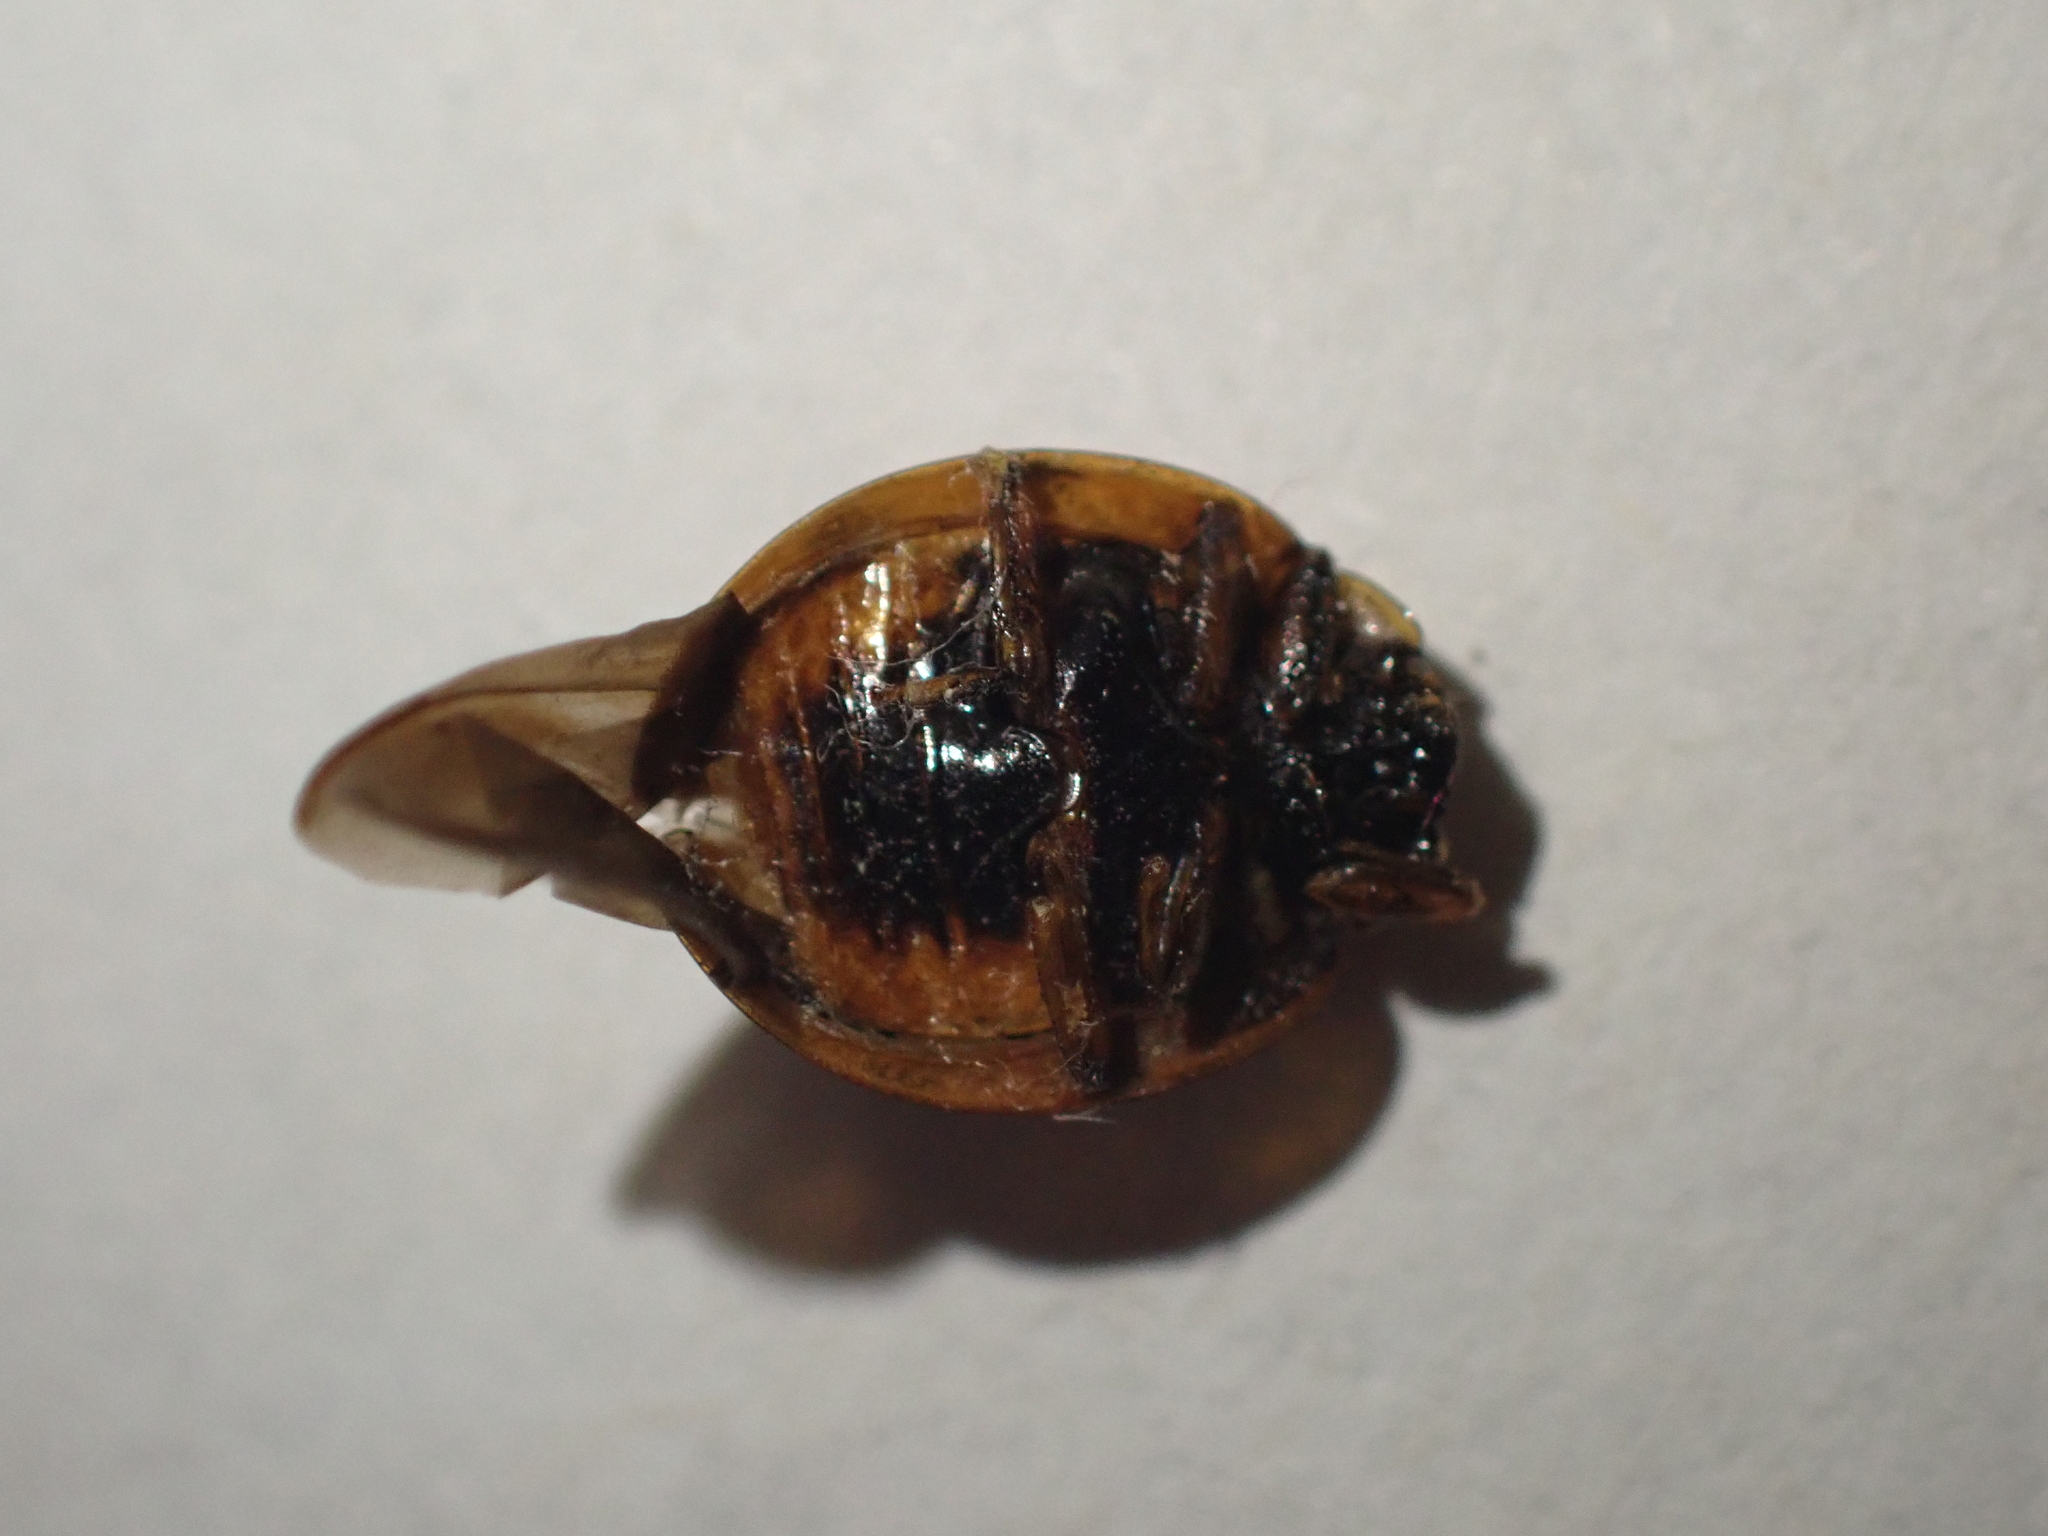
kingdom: Animalia
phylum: Arthropoda
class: Insecta
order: Coleoptera
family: Coccinellidae
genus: Harmonia
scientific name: Harmonia axyridis
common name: Harlequin ladybird
